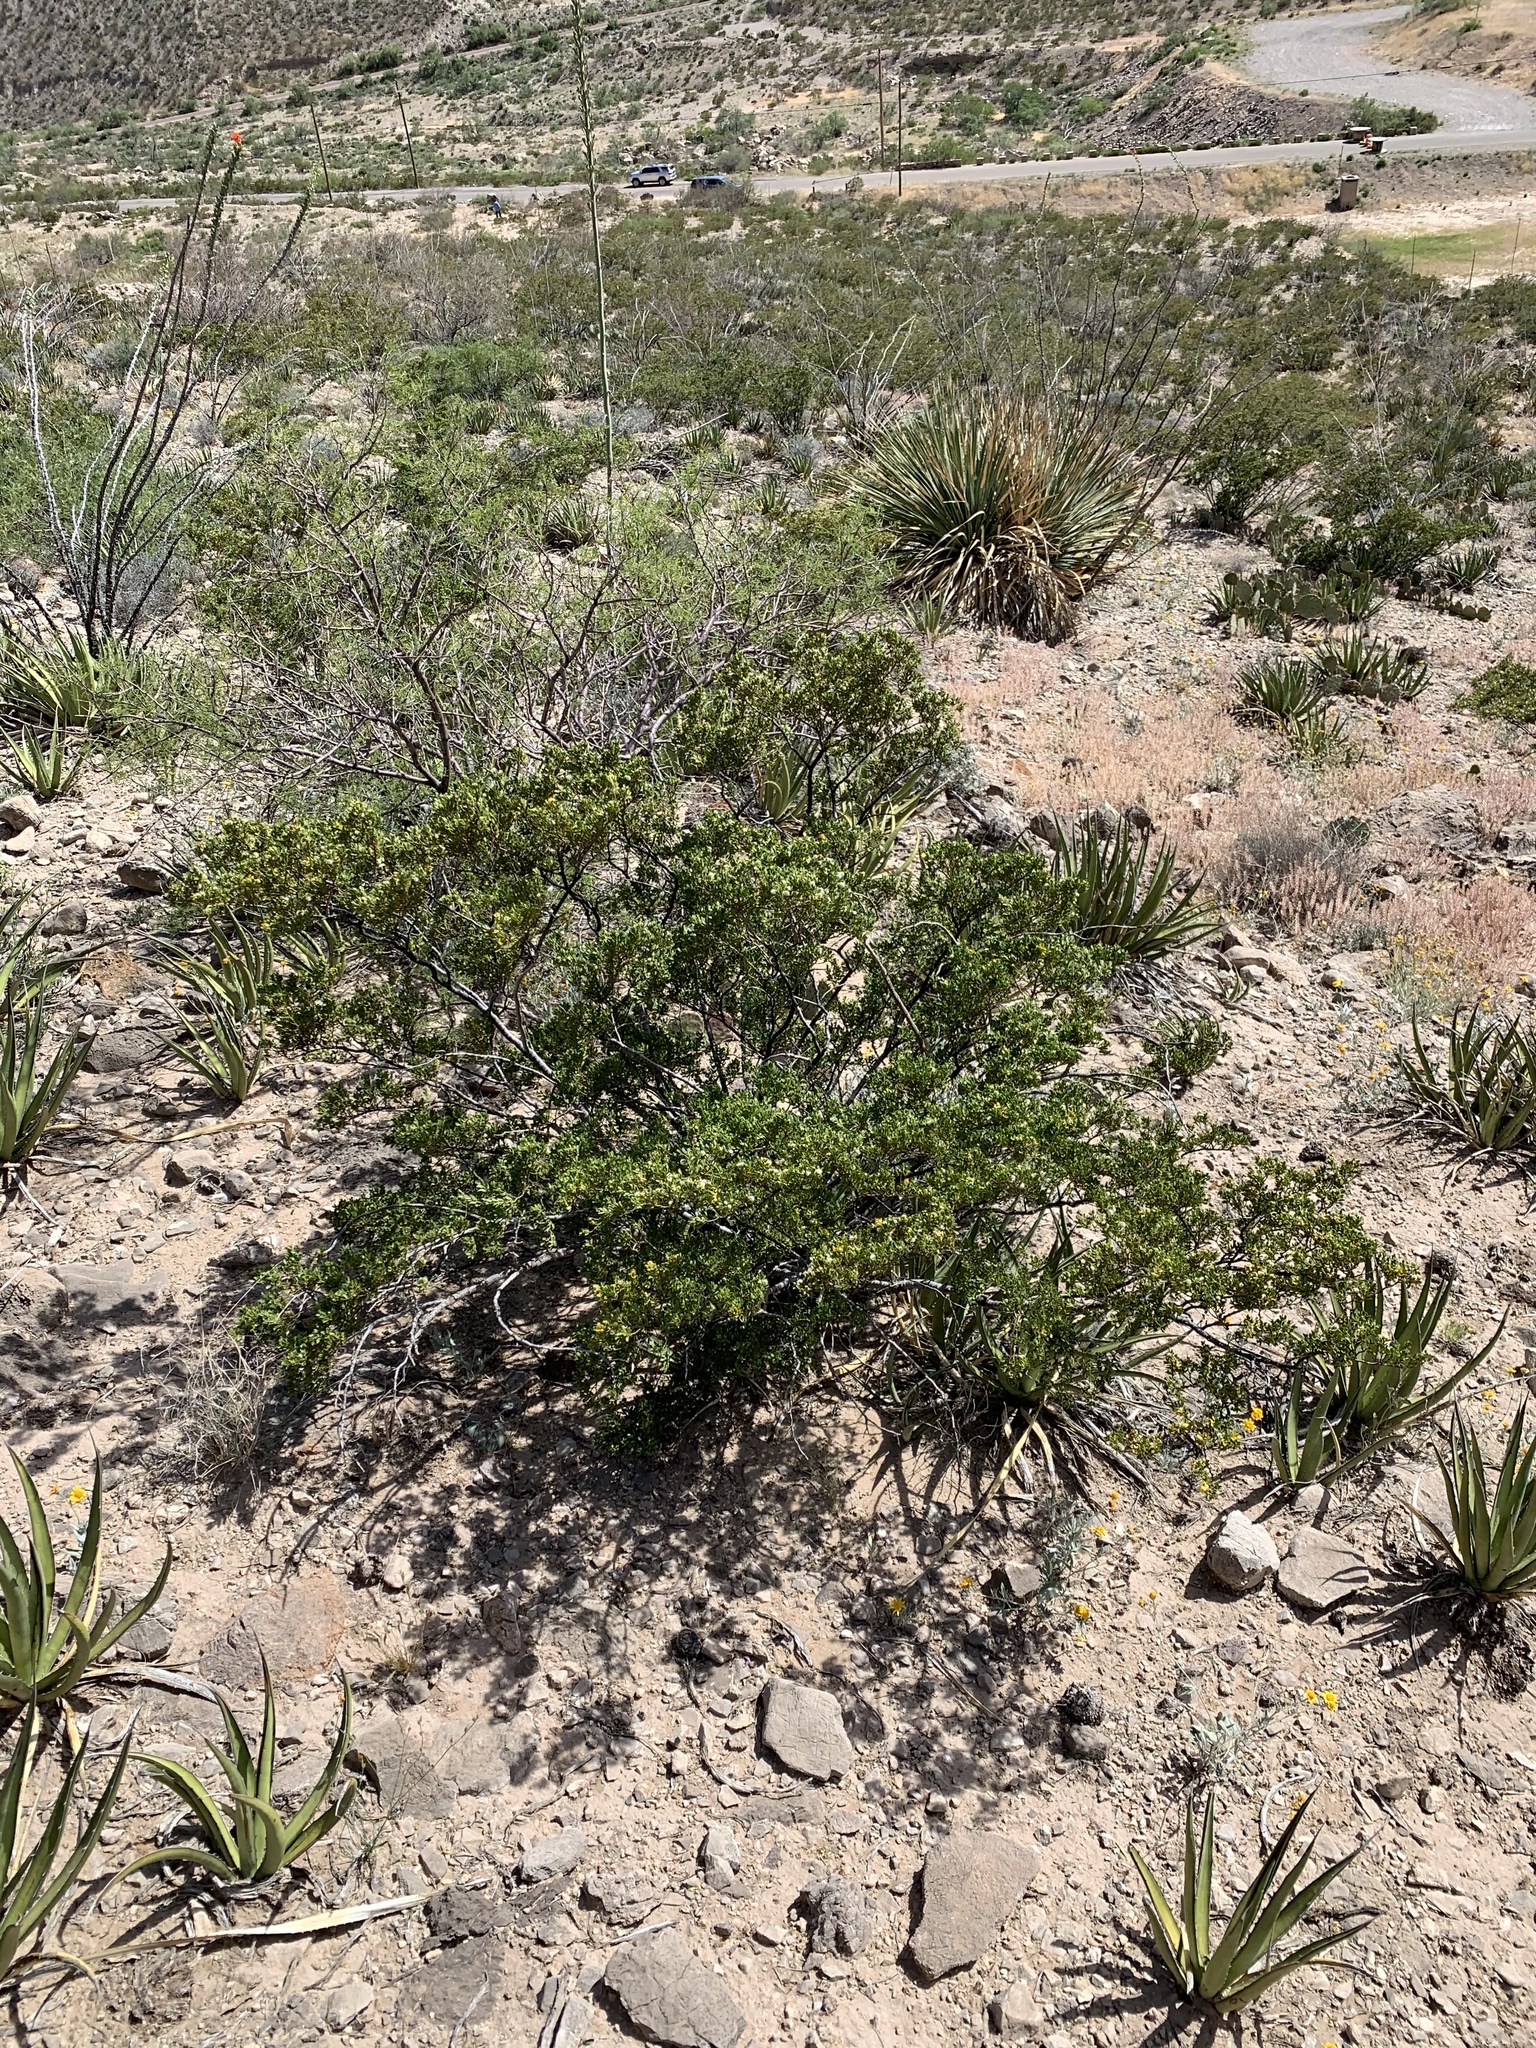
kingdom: Plantae
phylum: Tracheophyta
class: Magnoliopsida
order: Zygophyllales
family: Zygophyllaceae
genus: Larrea
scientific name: Larrea tridentata
